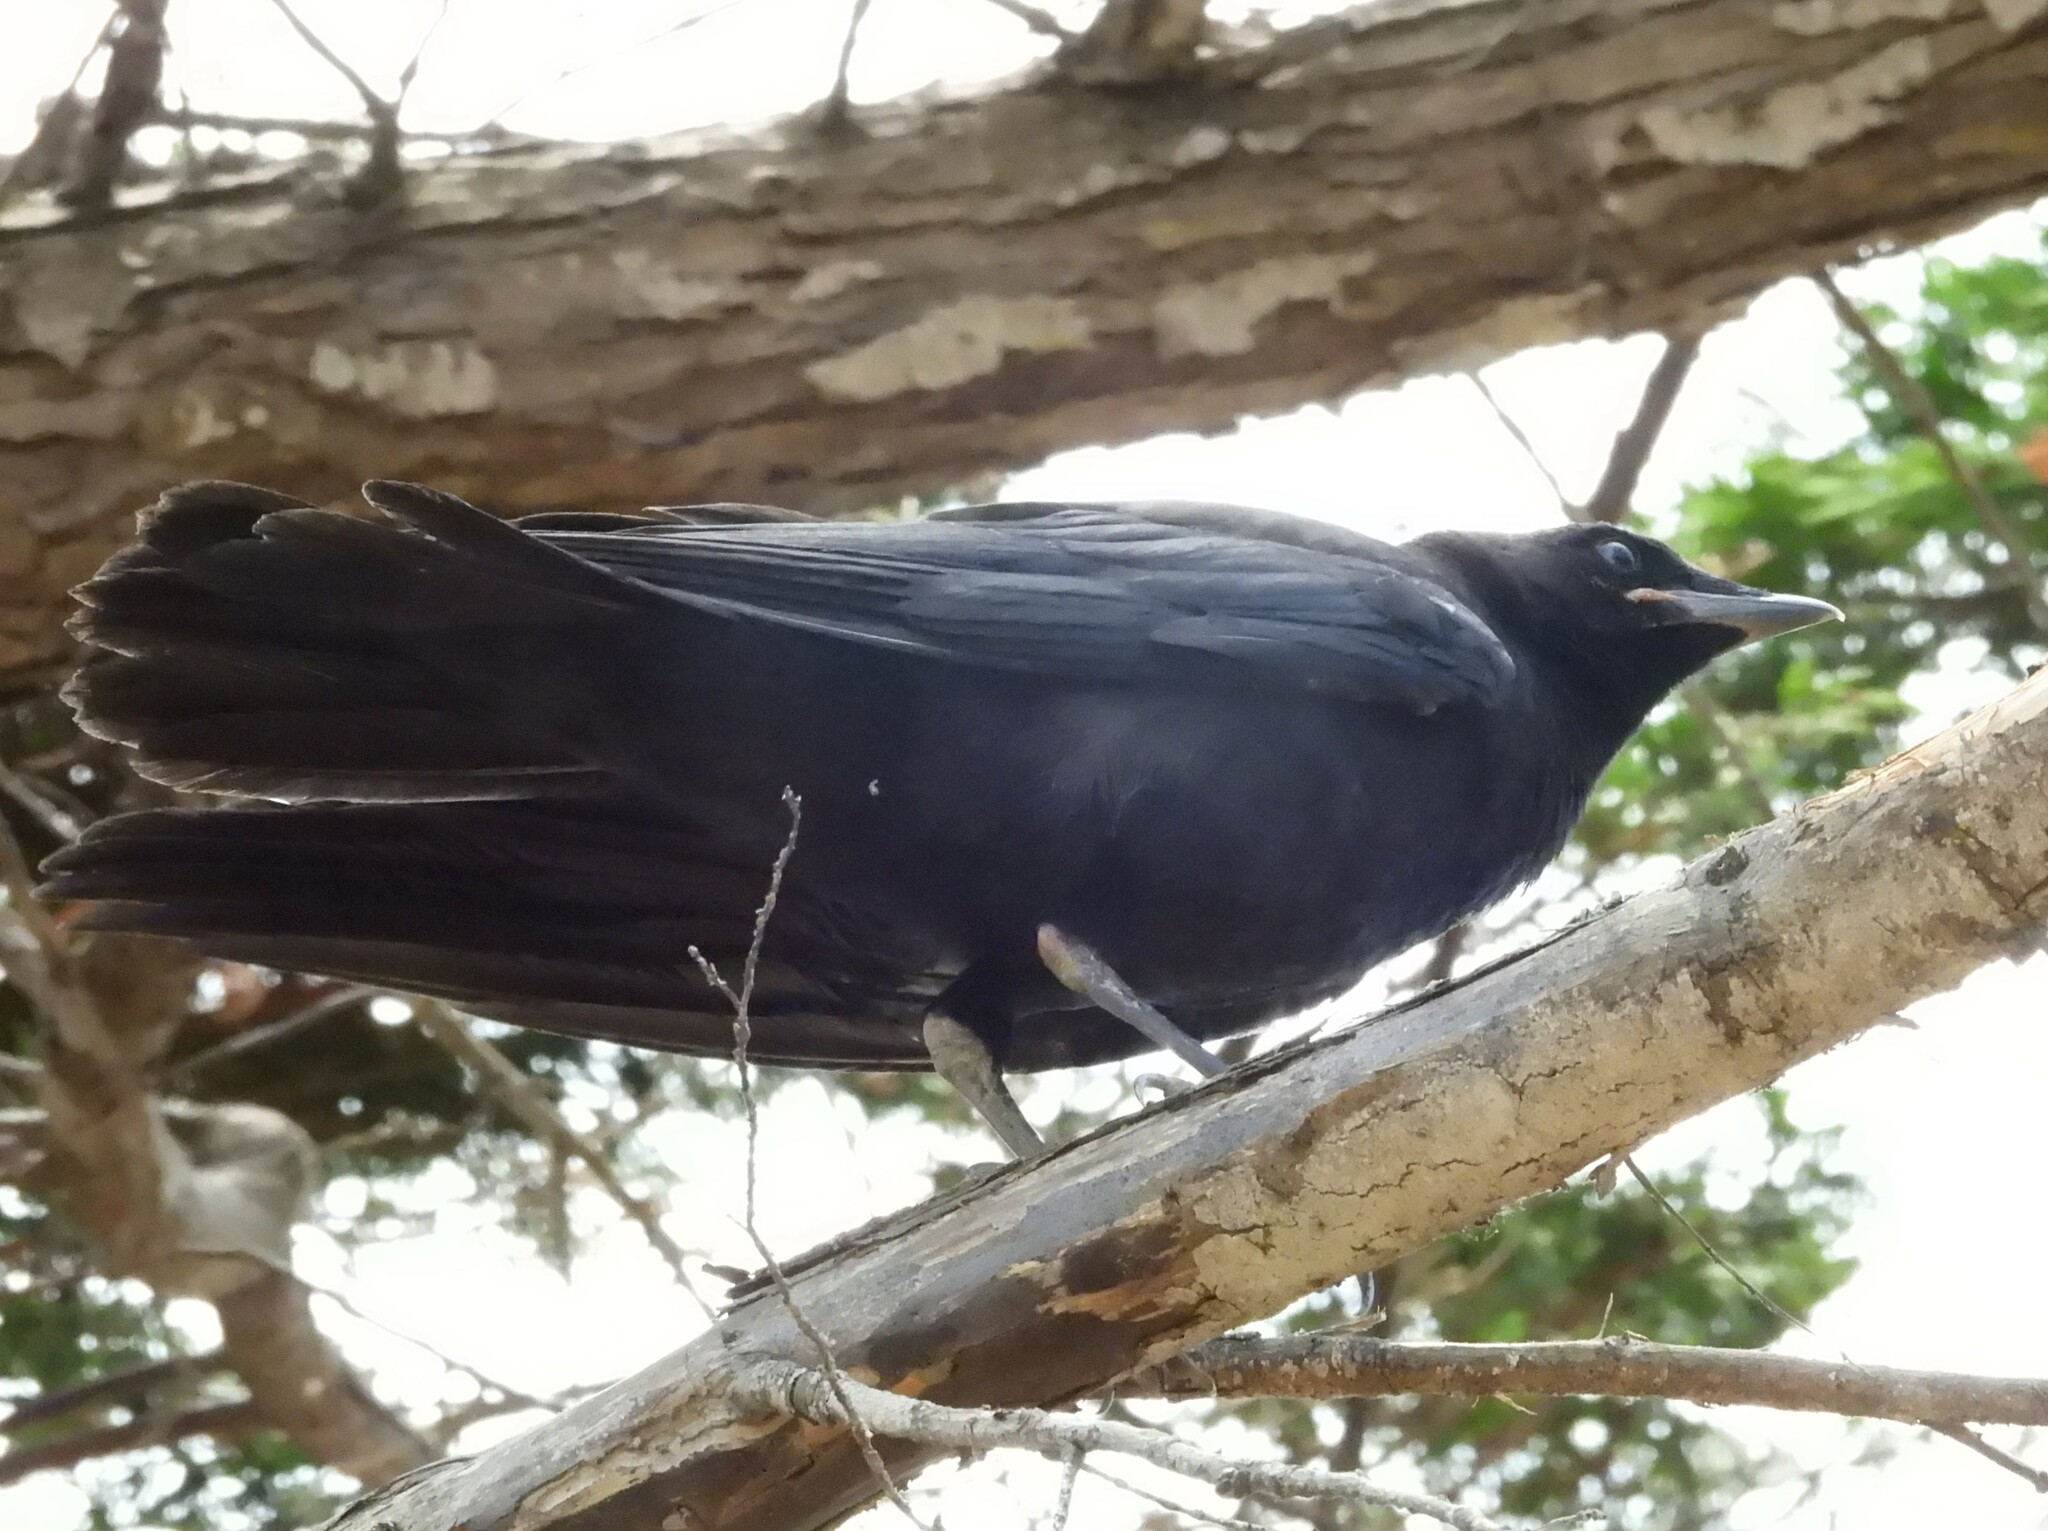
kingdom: Animalia
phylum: Chordata
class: Aves
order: Passeriformes
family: Corvidae
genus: Corvus
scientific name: Corvus brachyrhynchos
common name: American crow
